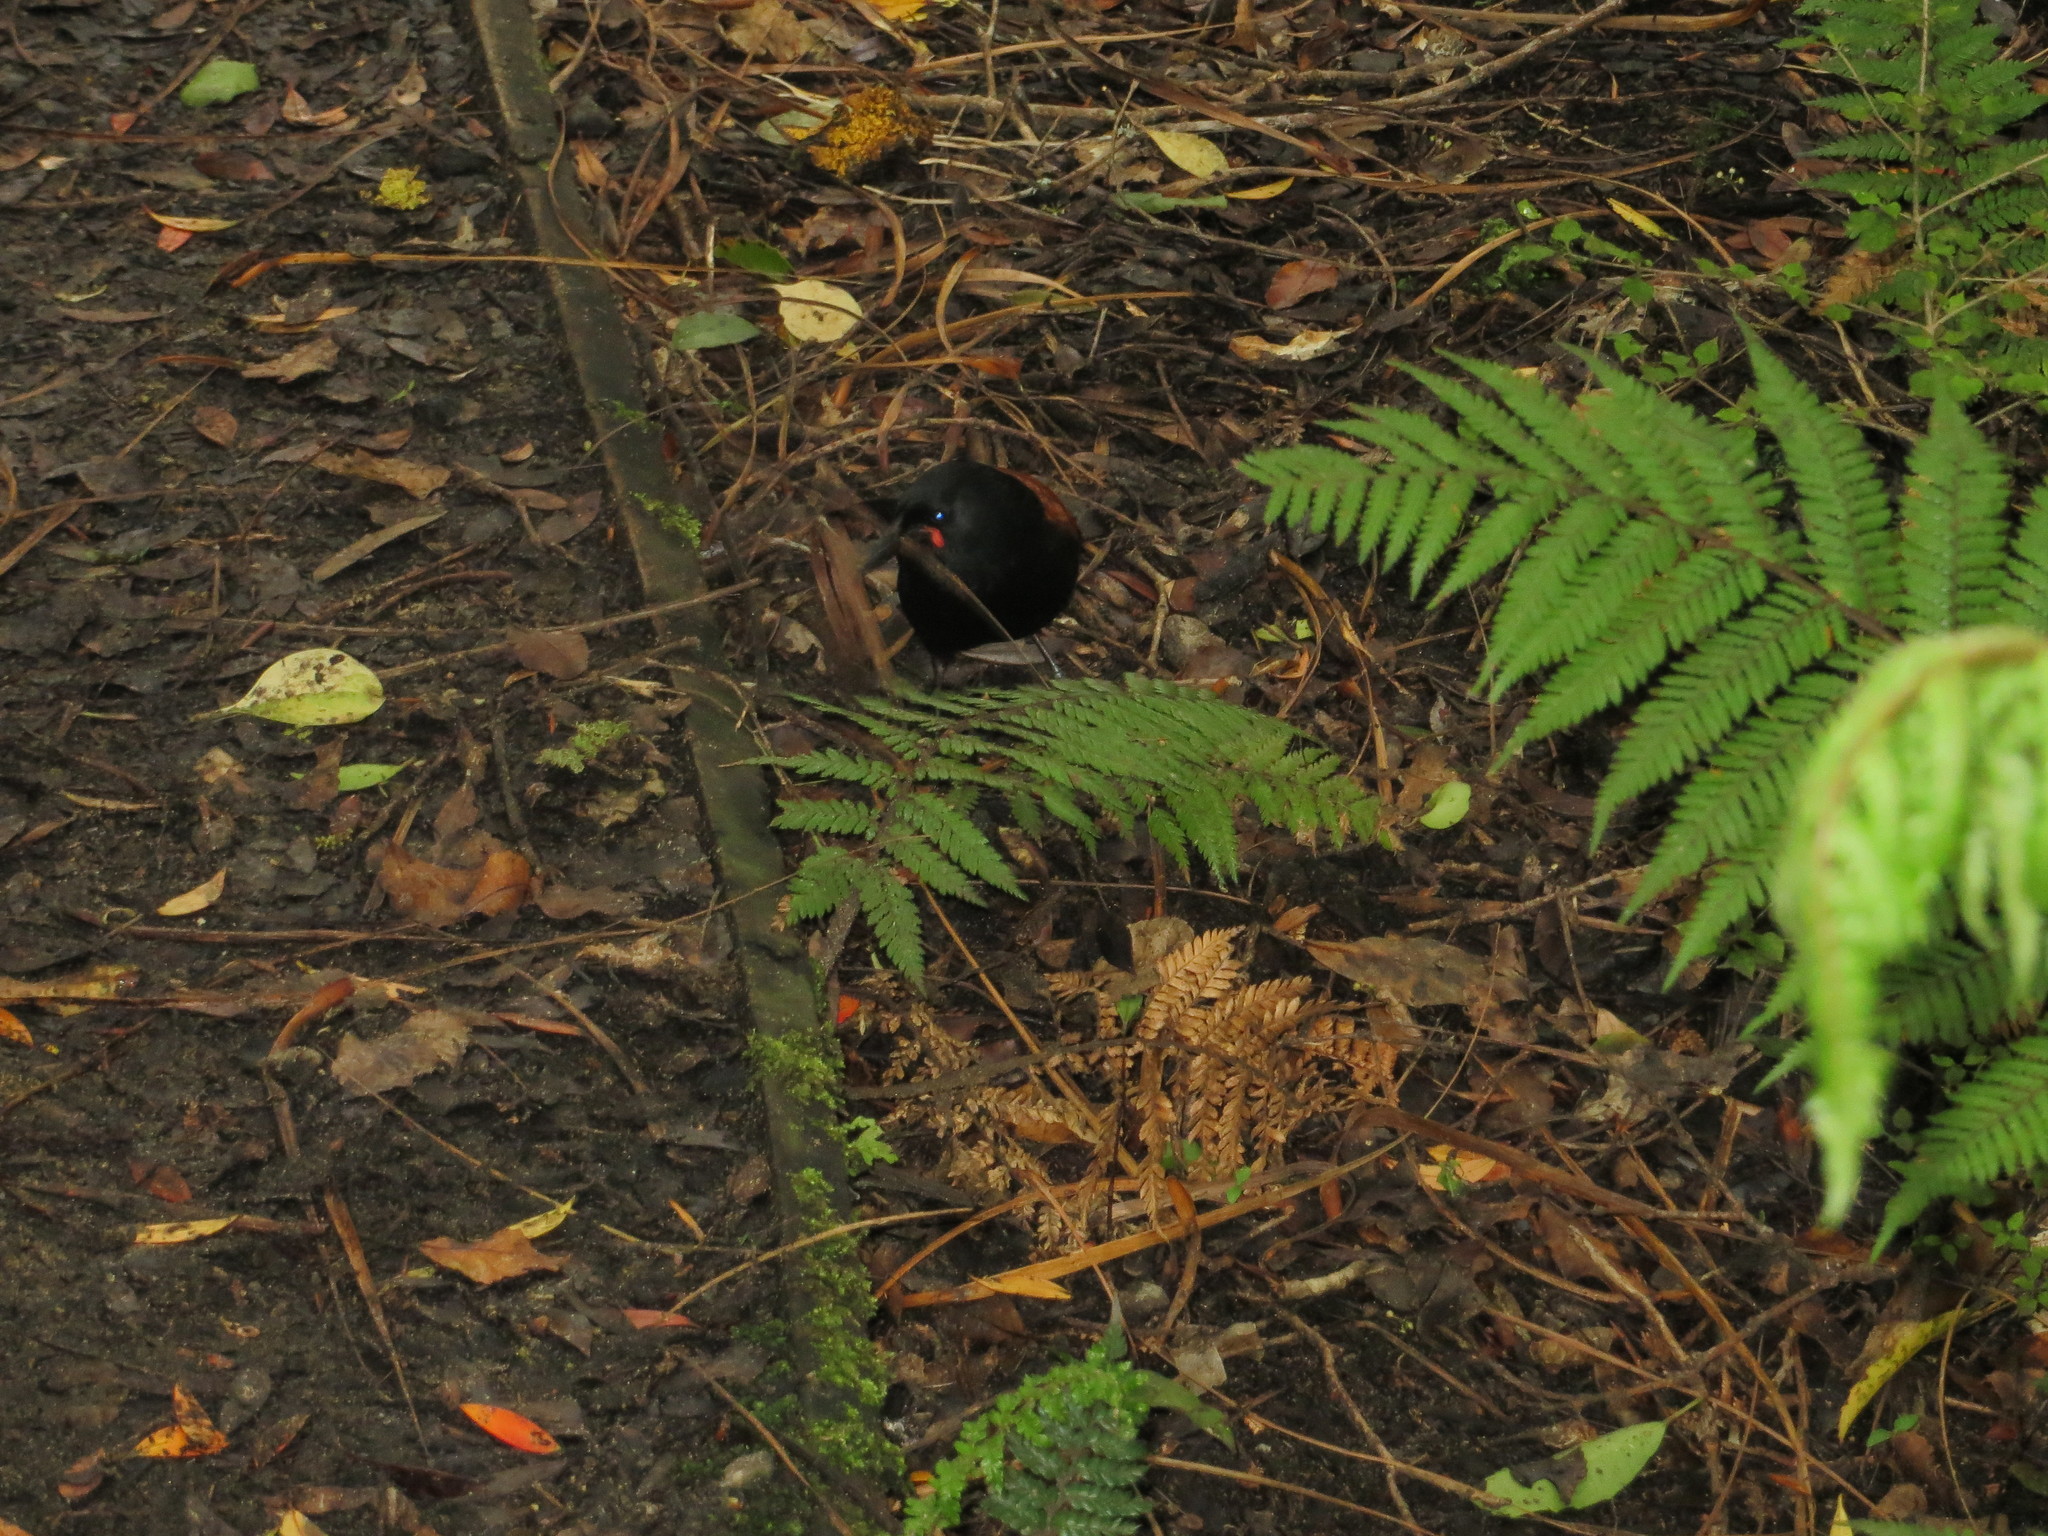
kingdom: Animalia
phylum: Chordata
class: Aves
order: Passeriformes
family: Callaeatidae
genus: Philesturnus
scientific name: Philesturnus carunculatus
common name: South island saddleback
